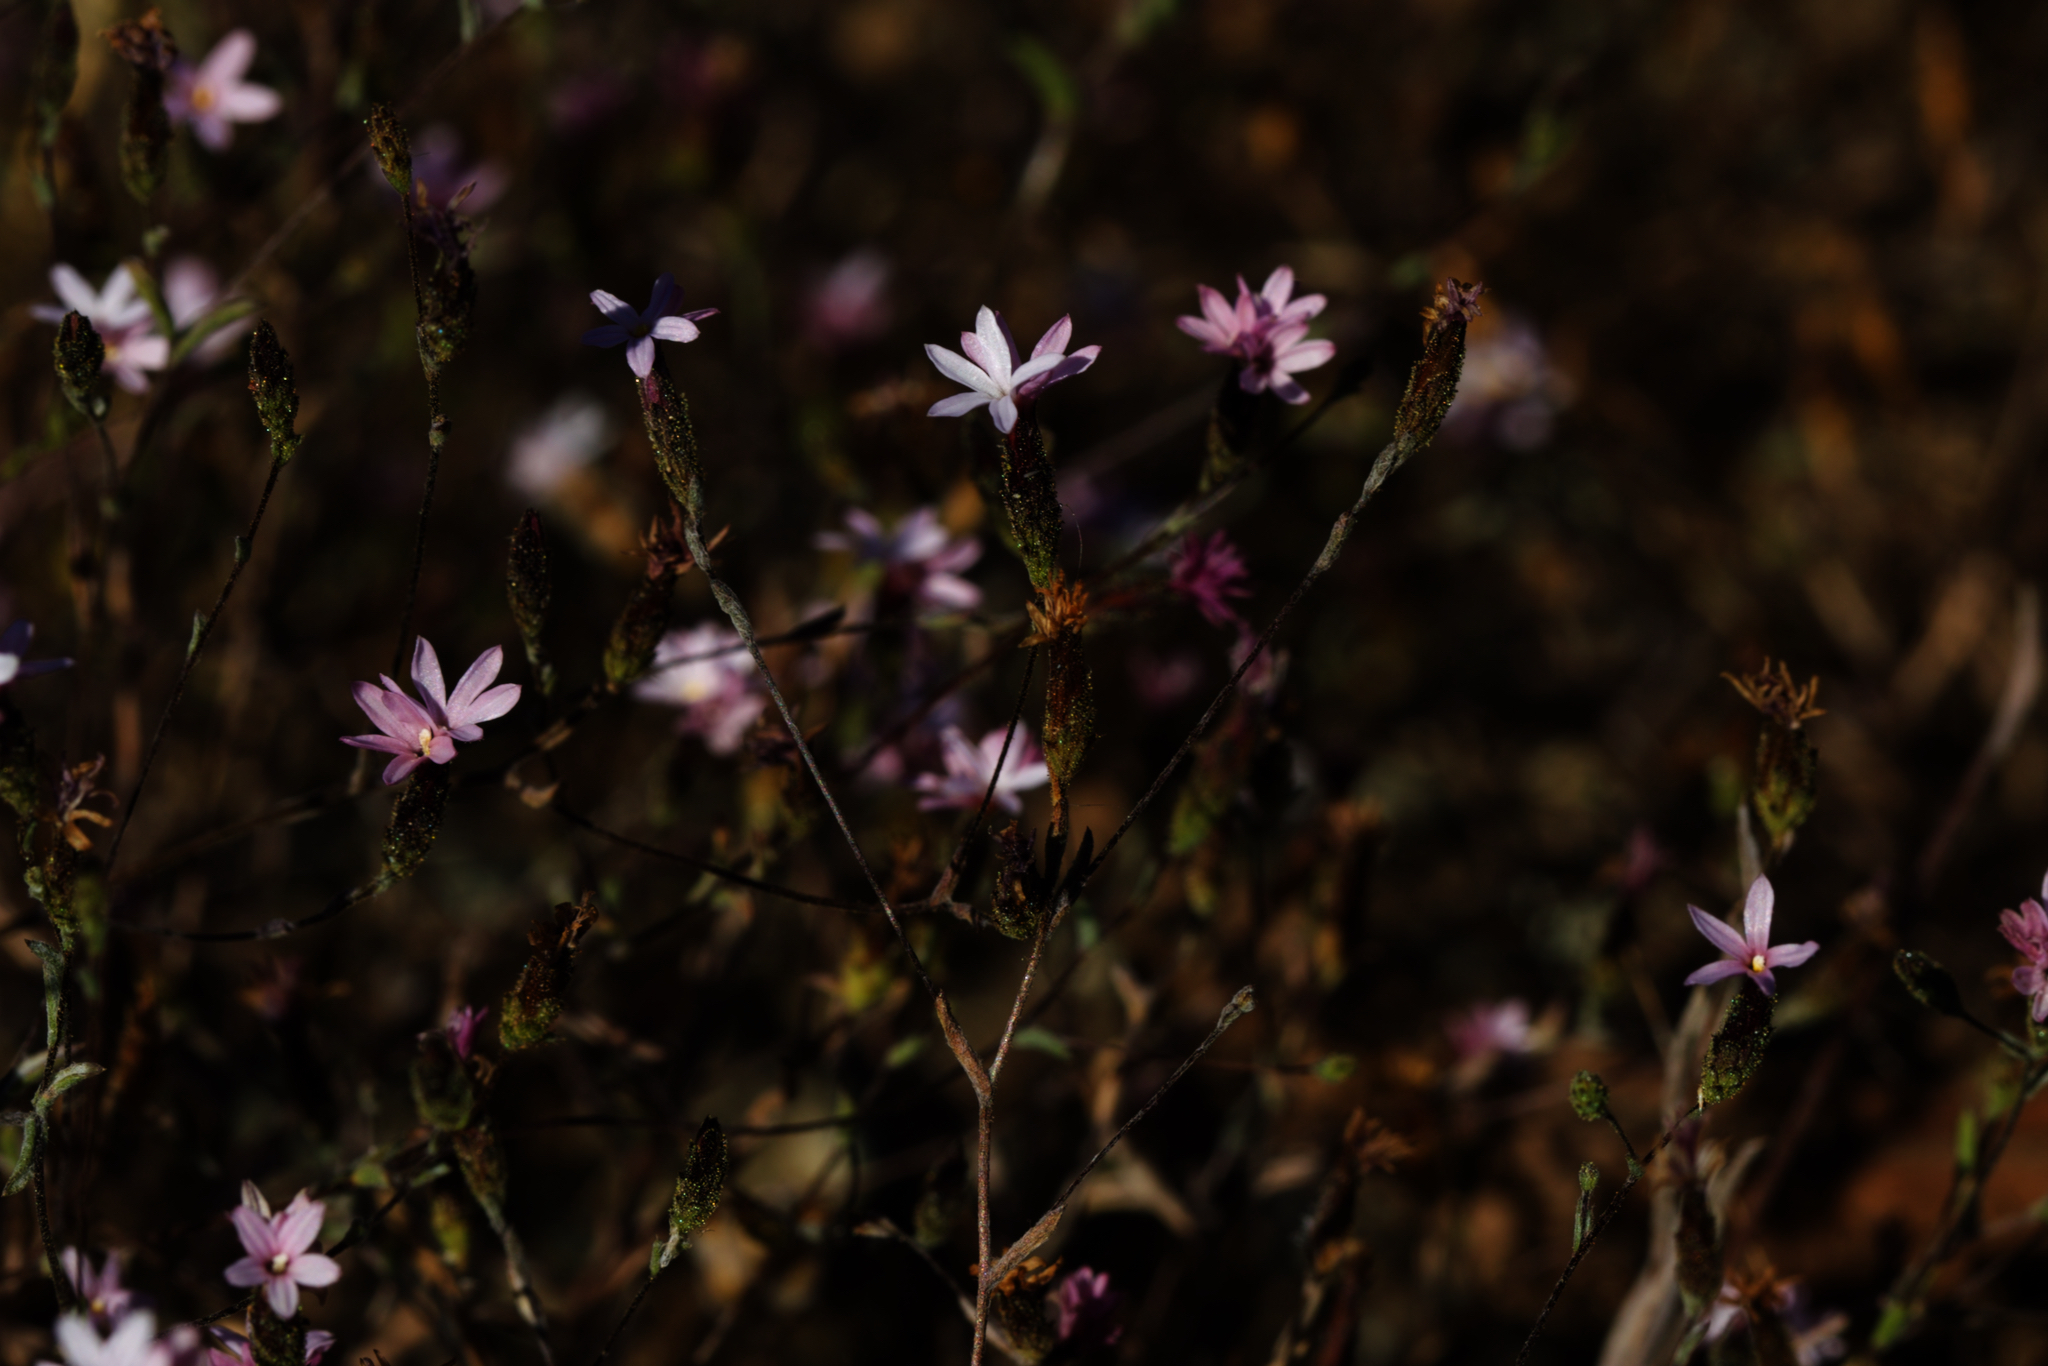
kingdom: Plantae
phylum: Tracheophyta
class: Magnoliopsida
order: Asterales
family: Asteraceae
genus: Lessingia
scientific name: Lessingia micradenia
